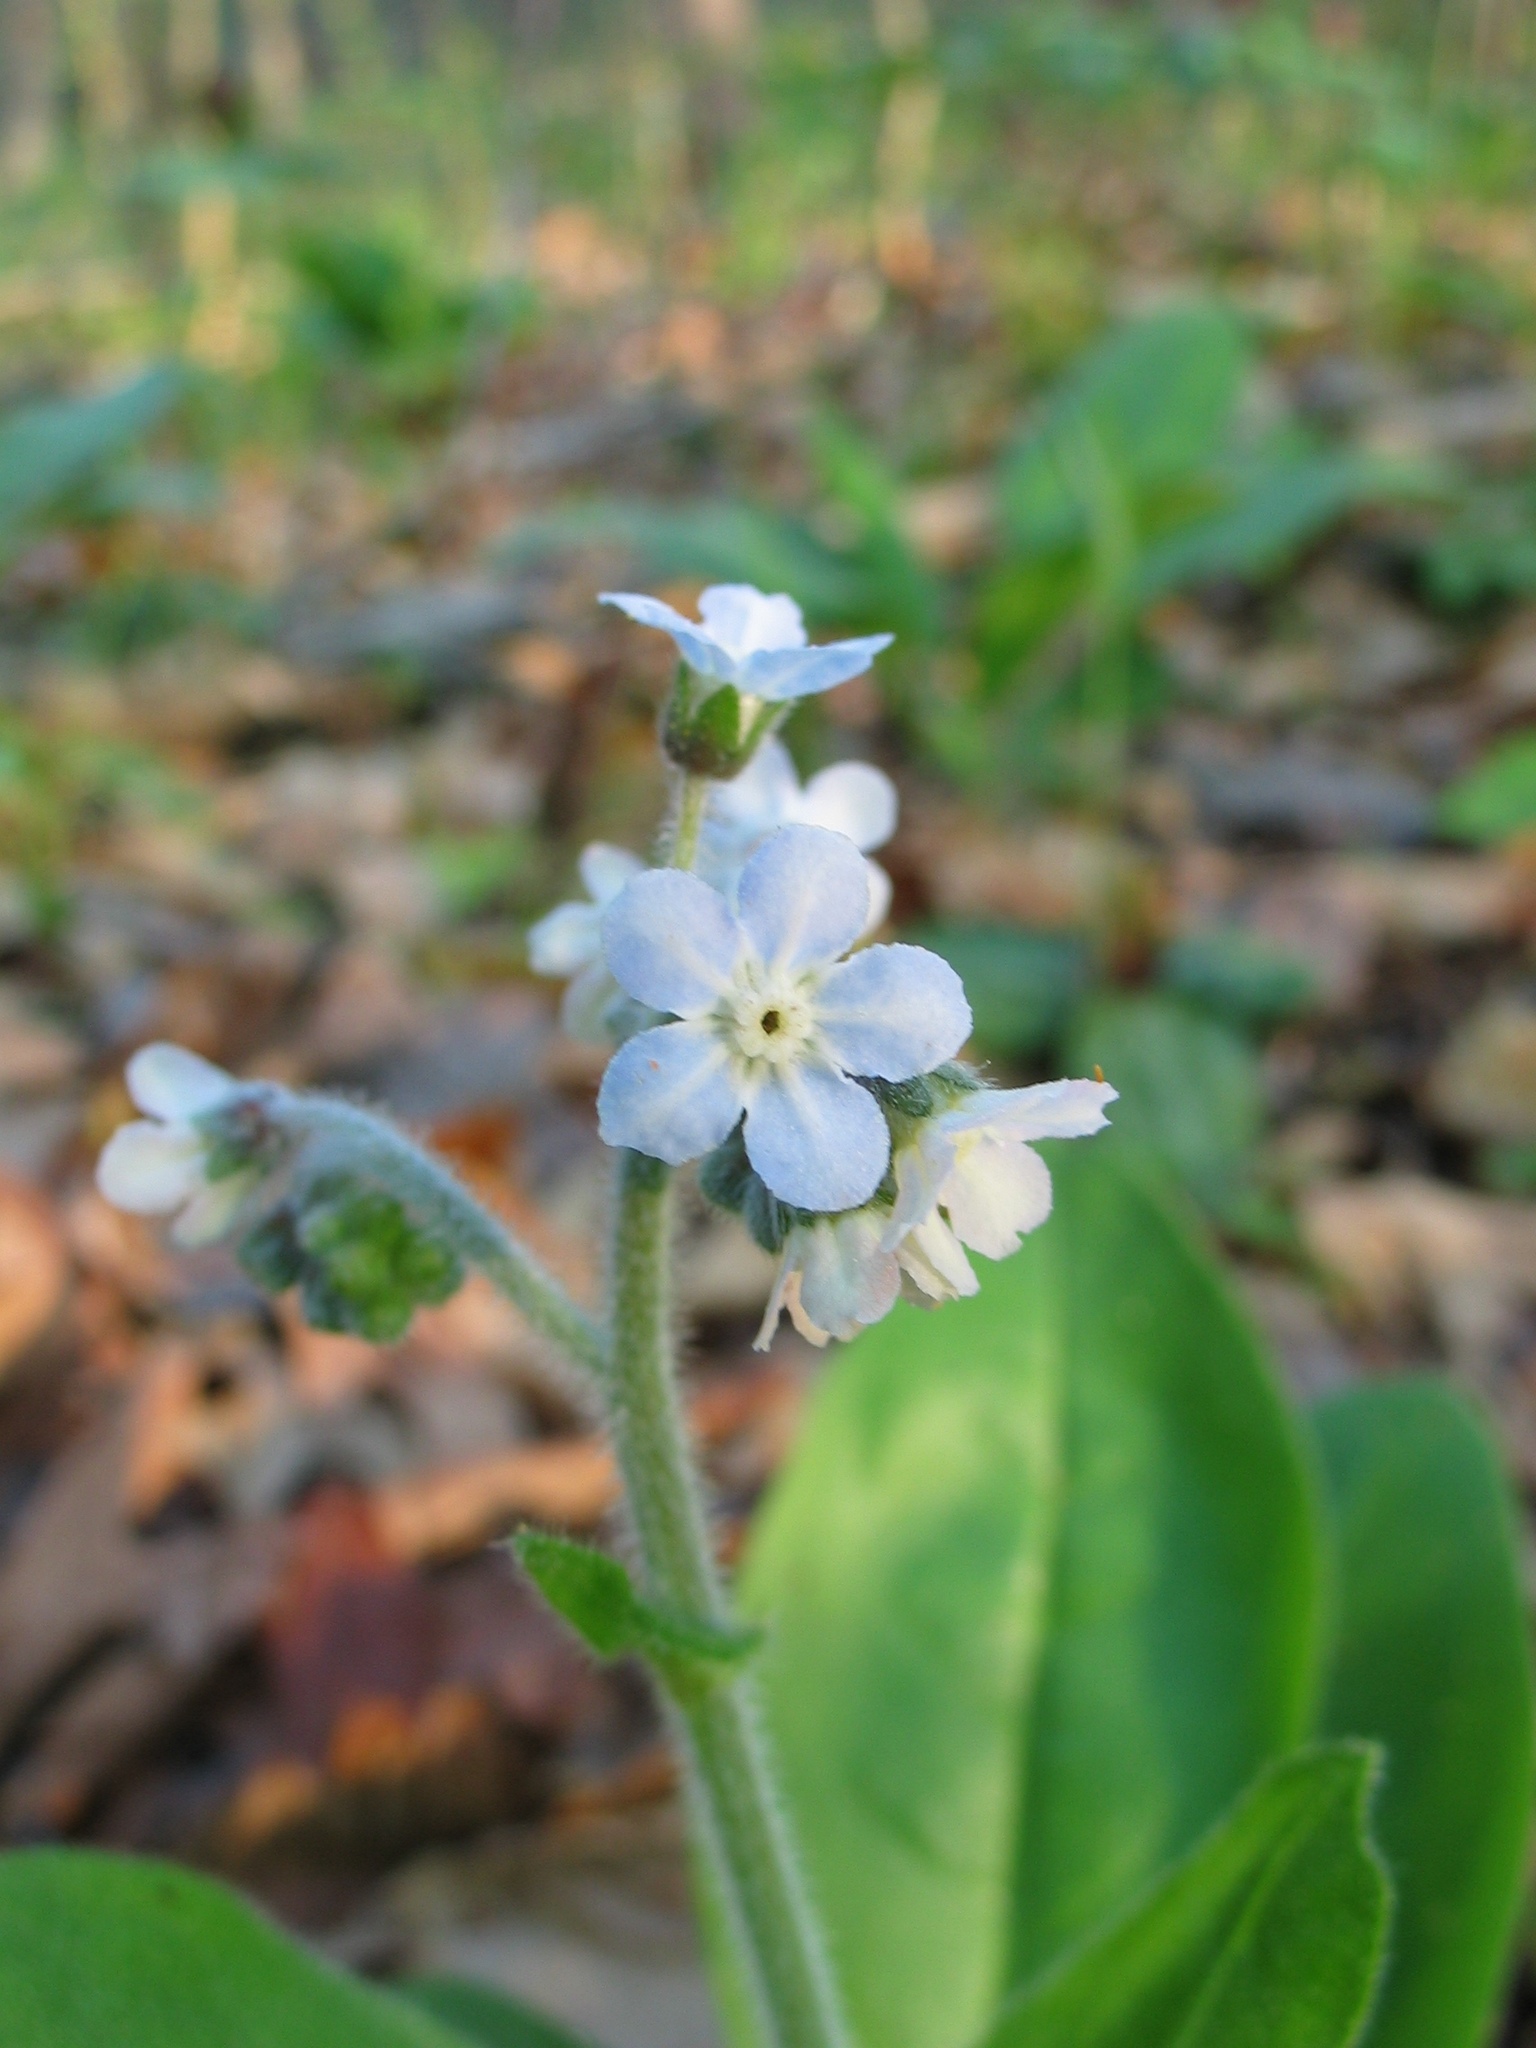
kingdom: Plantae
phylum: Tracheophyta
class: Magnoliopsida
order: Boraginales
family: Boraginaceae
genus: Andersonglossum
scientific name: Andersonglossum virginianum
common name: Wild comfrey
